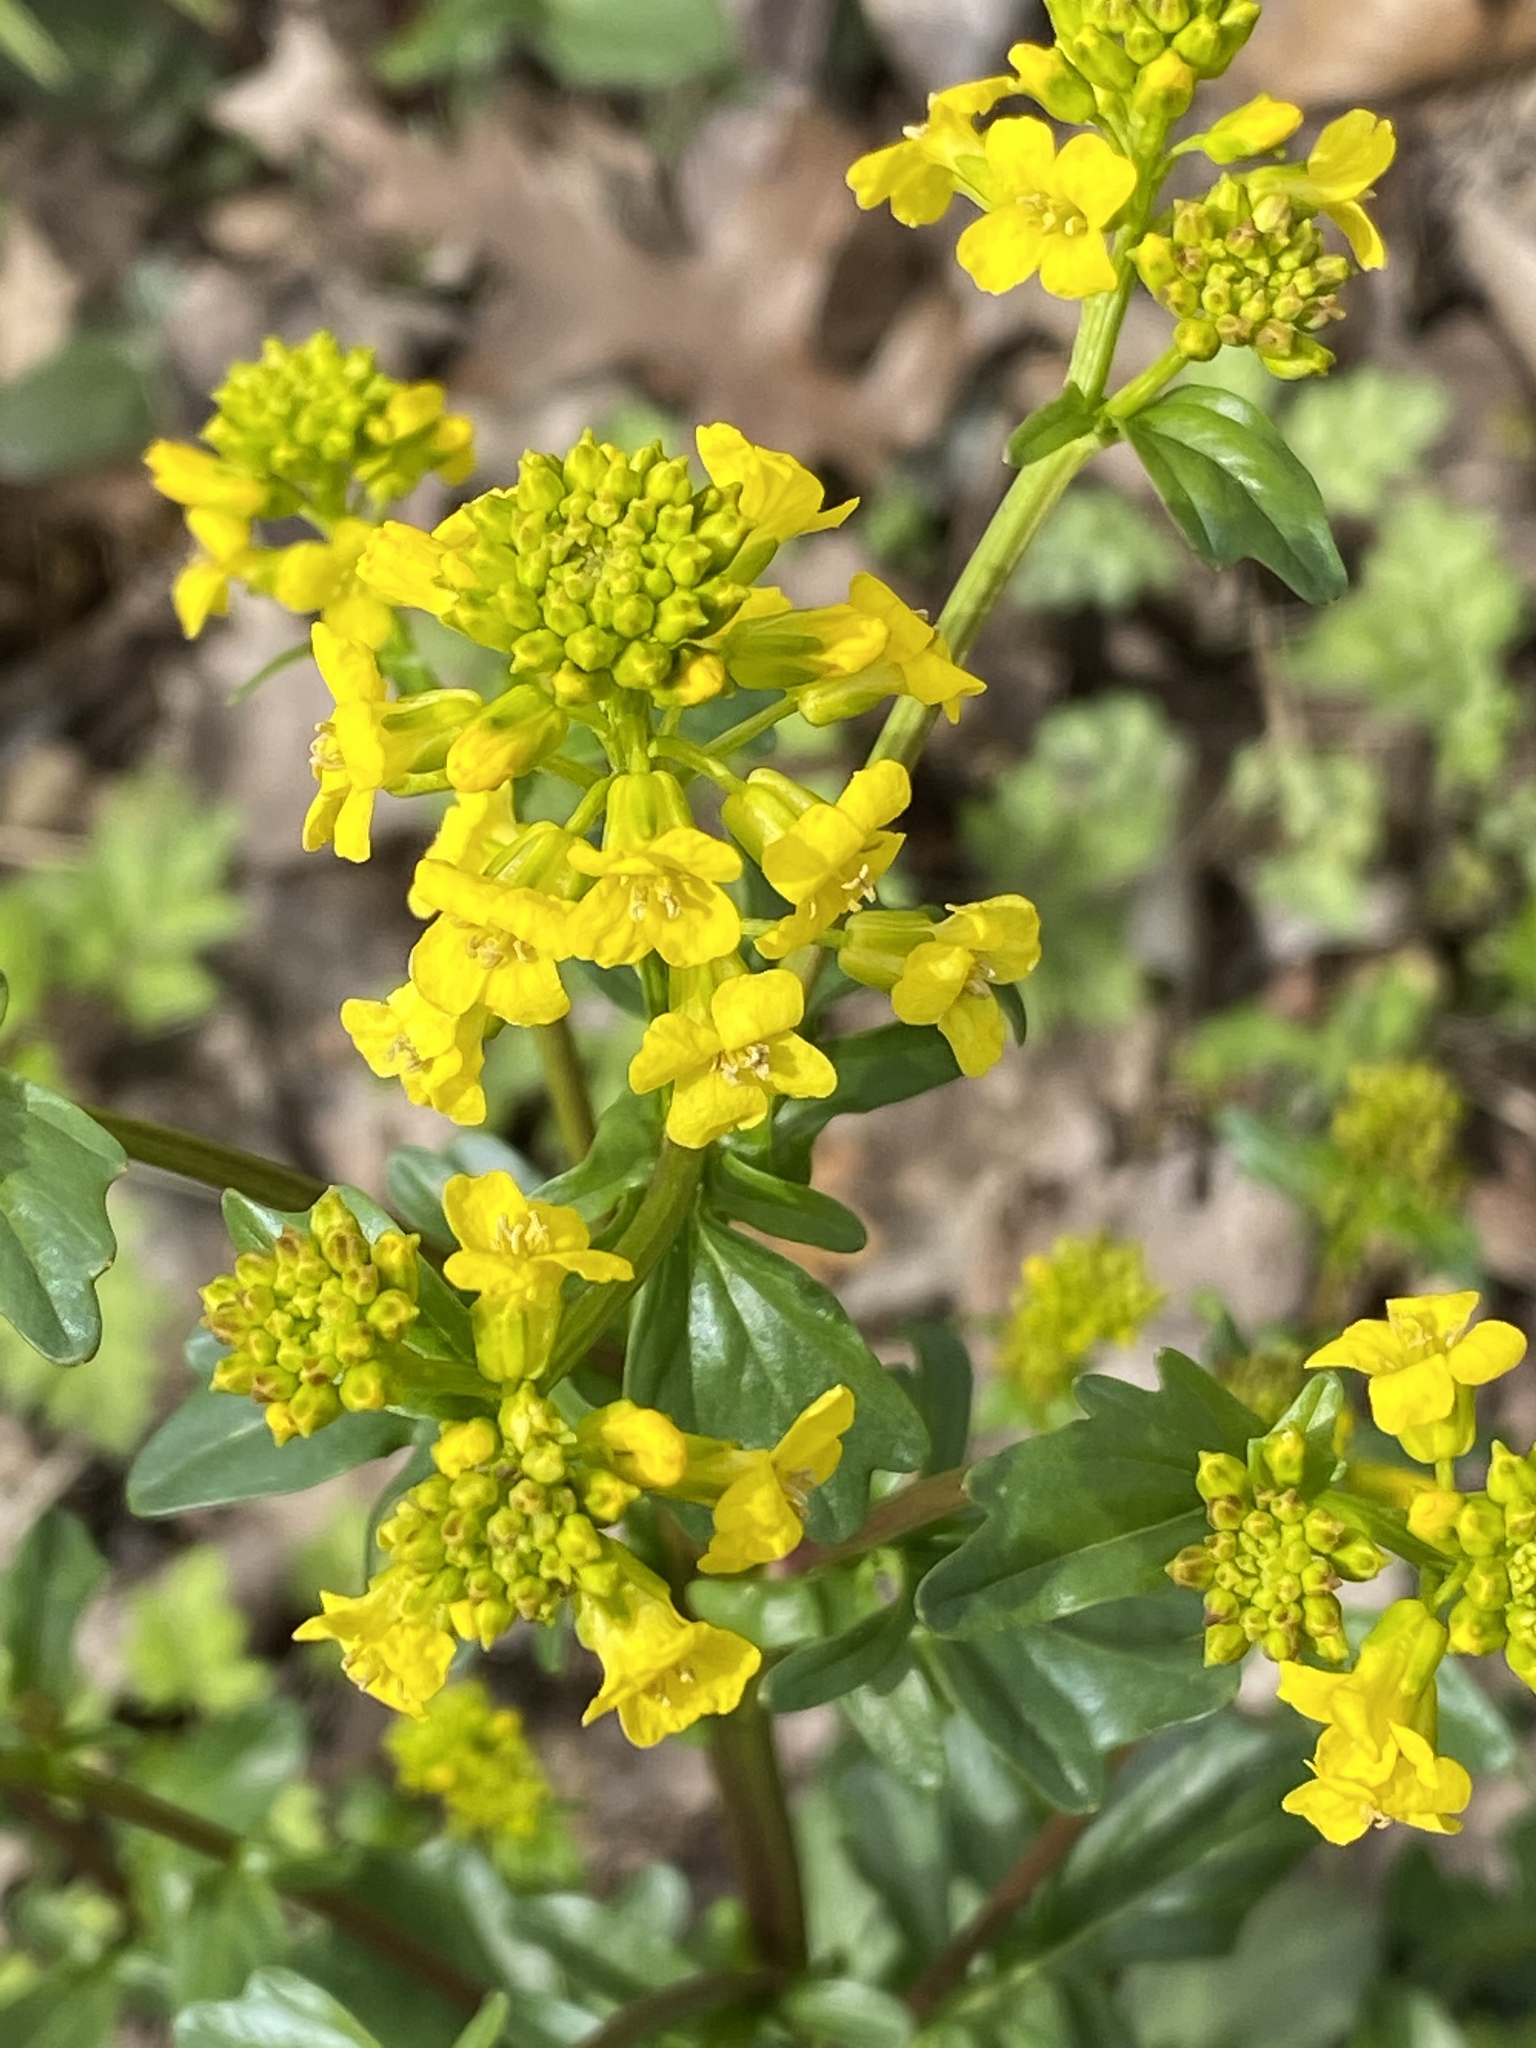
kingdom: Plantae
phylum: Tracheophyta
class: Magnoliopsida
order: Brassicales
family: Brassicaceae
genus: Barbarea
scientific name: Barbarea vulgaris
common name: Cressy-greens
